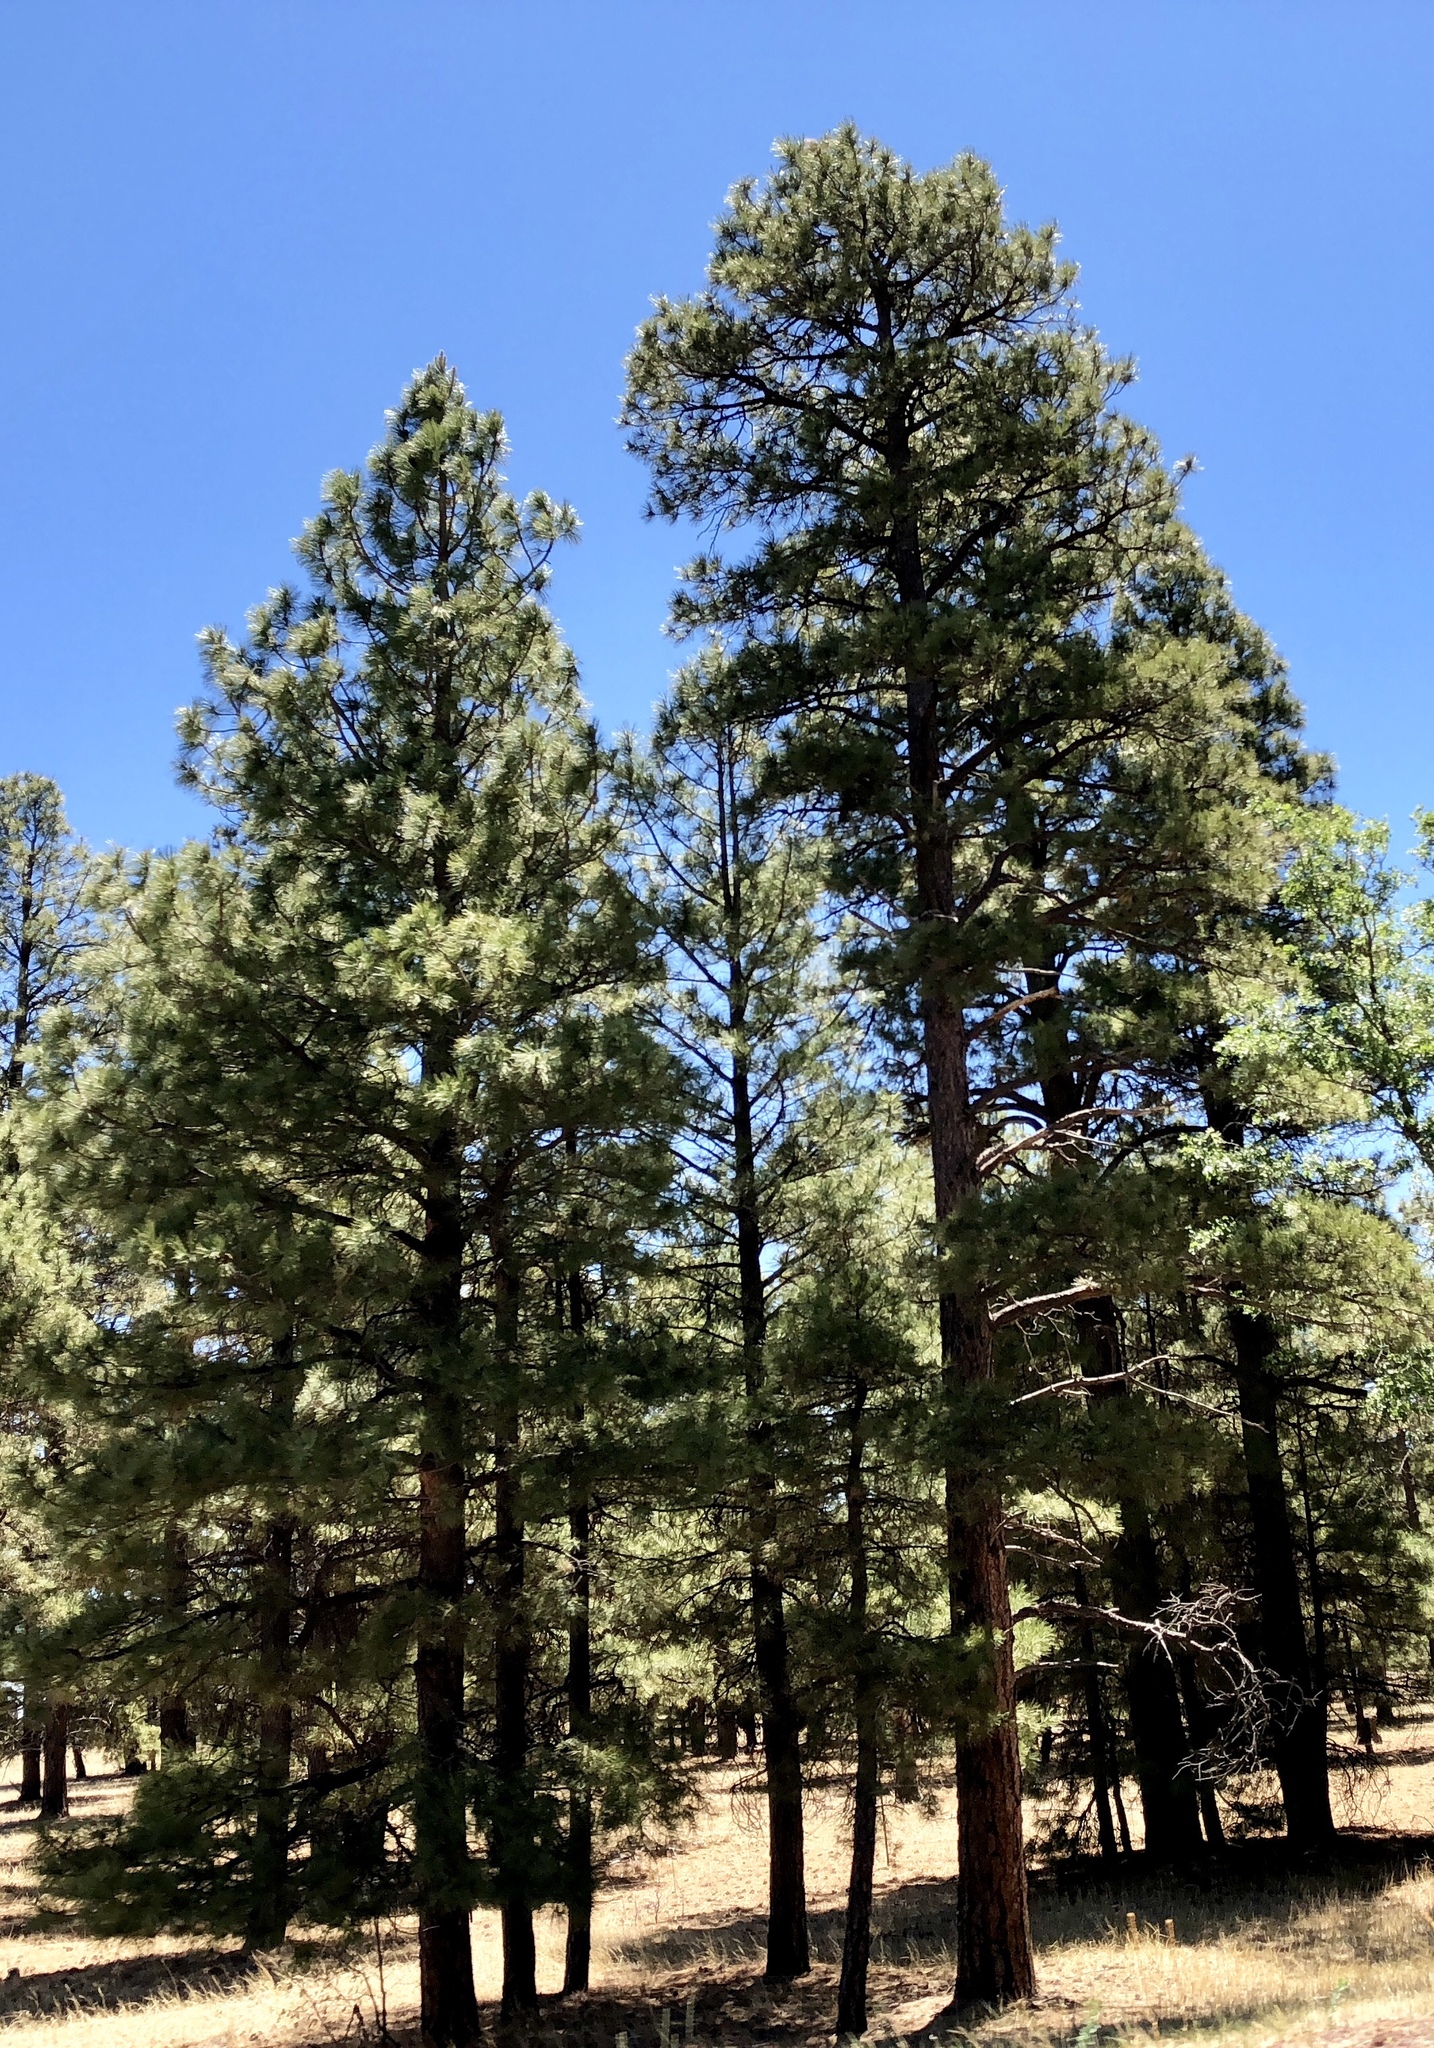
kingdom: Plantae
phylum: Tracheophyta
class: Pinopsida
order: Pinales
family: Pinaceae
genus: Pinus
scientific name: Pinus ponderosa
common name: Western yellow-pine
